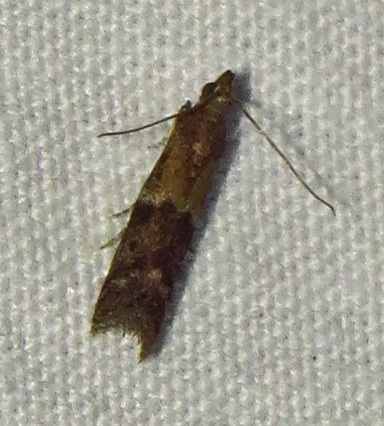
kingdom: Animalia
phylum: Arthropoda
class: Insecta
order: Lepidoptera
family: Pyralidae
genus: Ephestiodes
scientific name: Ephestiodes infimella
